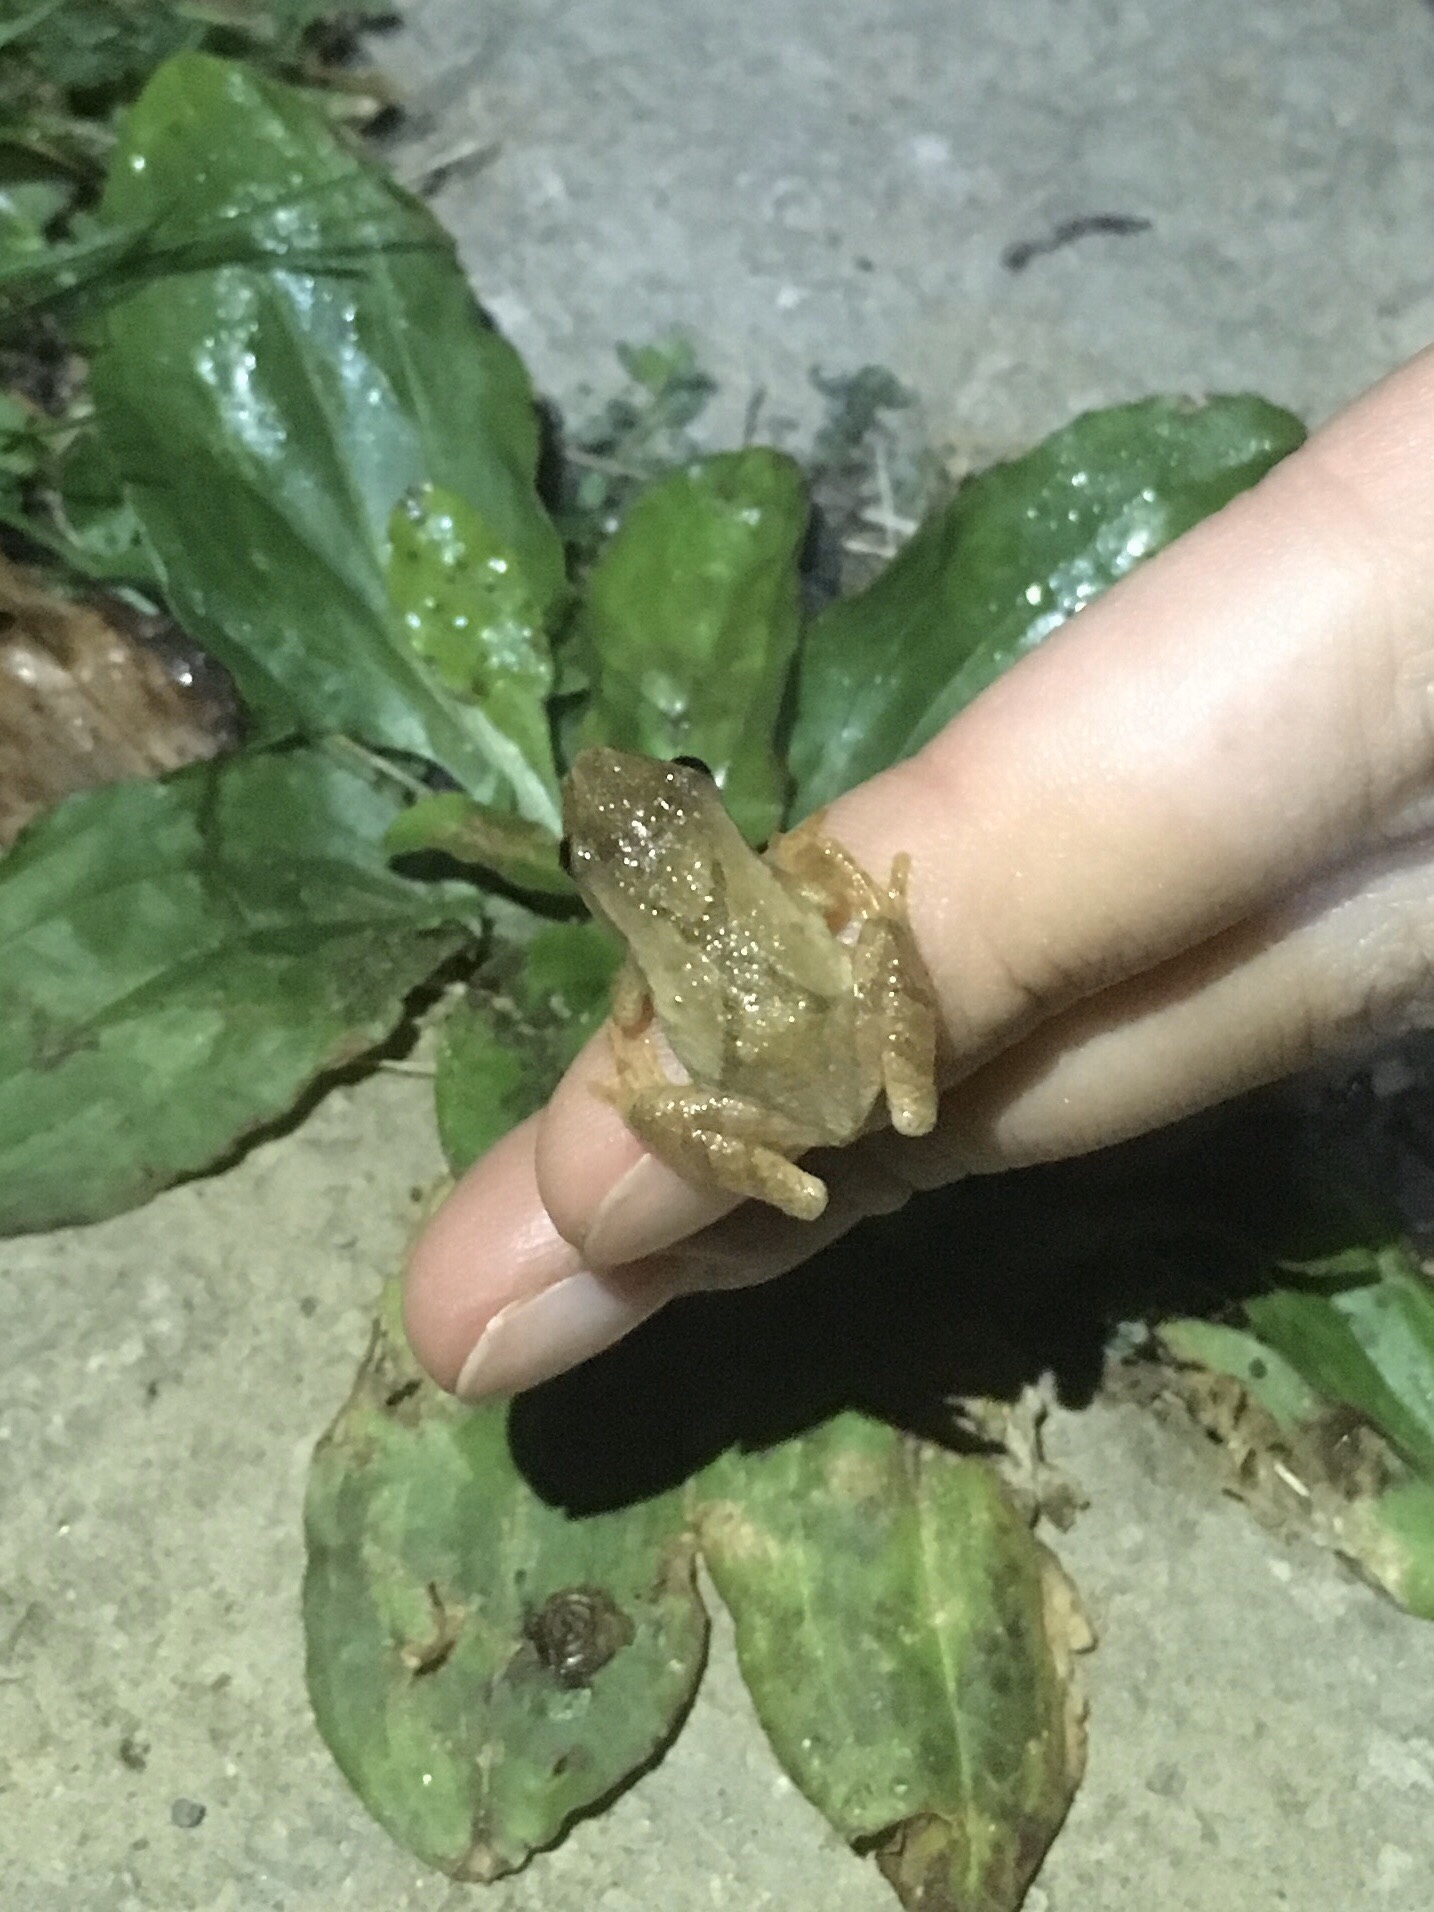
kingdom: Animalia
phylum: Chordata
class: Amphibia
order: Anura
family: Hylidae
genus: Pseudacris
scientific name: Pseudacris crucifer
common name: Spring peeper
